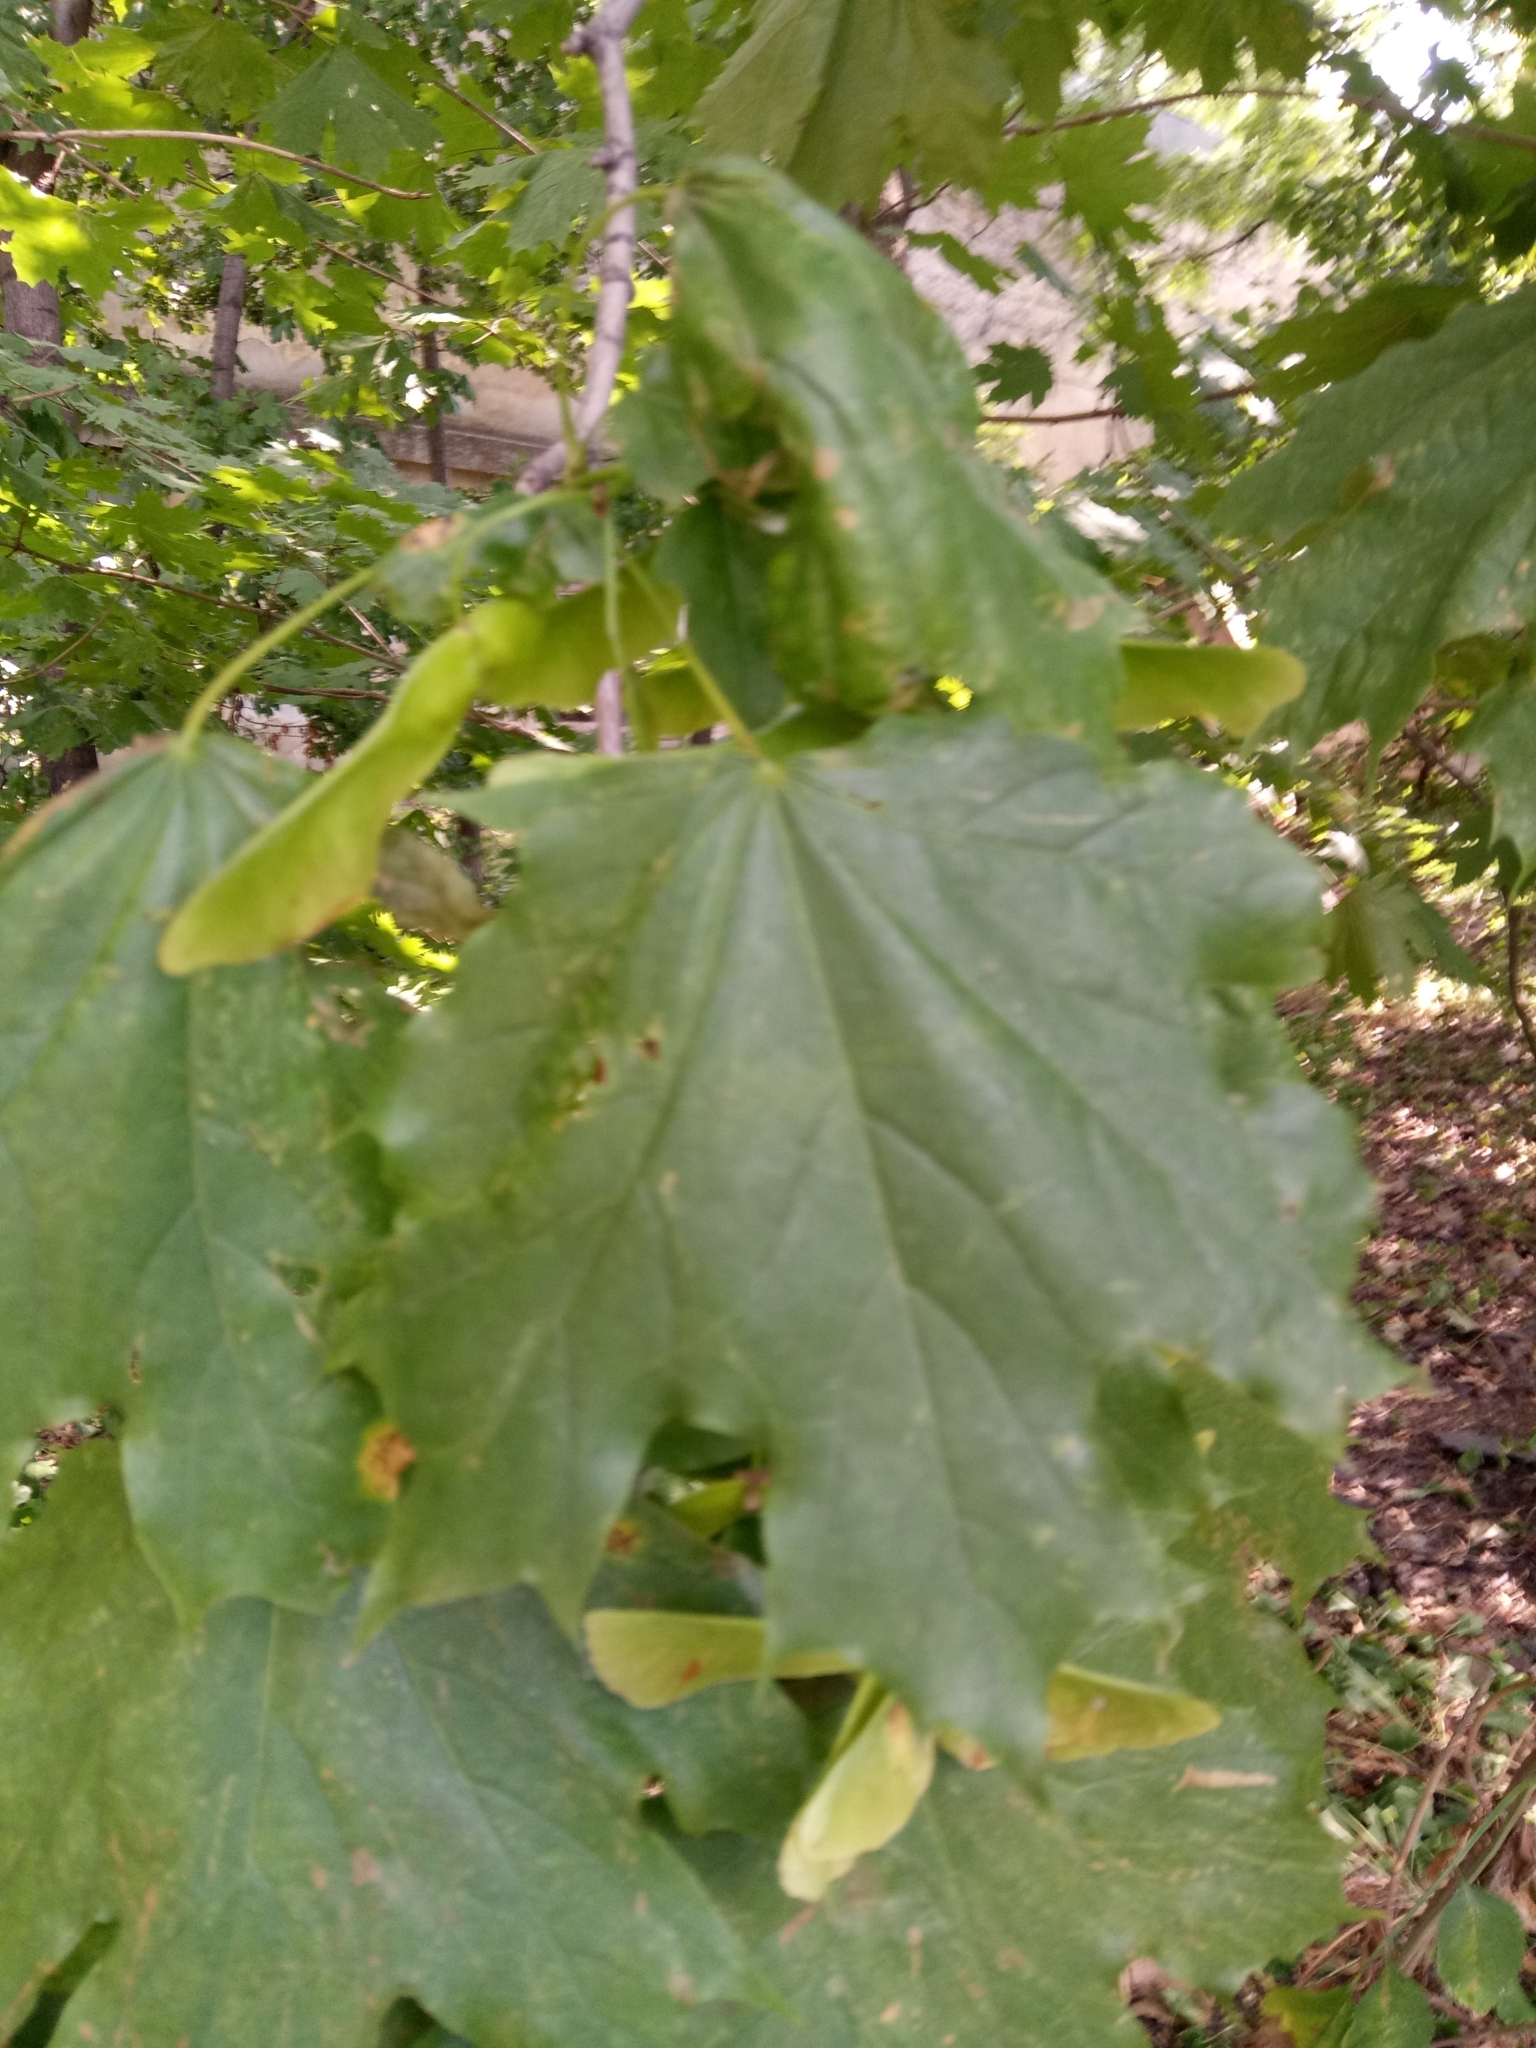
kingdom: Plantae
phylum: Tracheophyta
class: Magnoliopsida
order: Sapindales
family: Sapindaceae
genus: Acer
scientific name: Acer platanoides
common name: Norway maple
